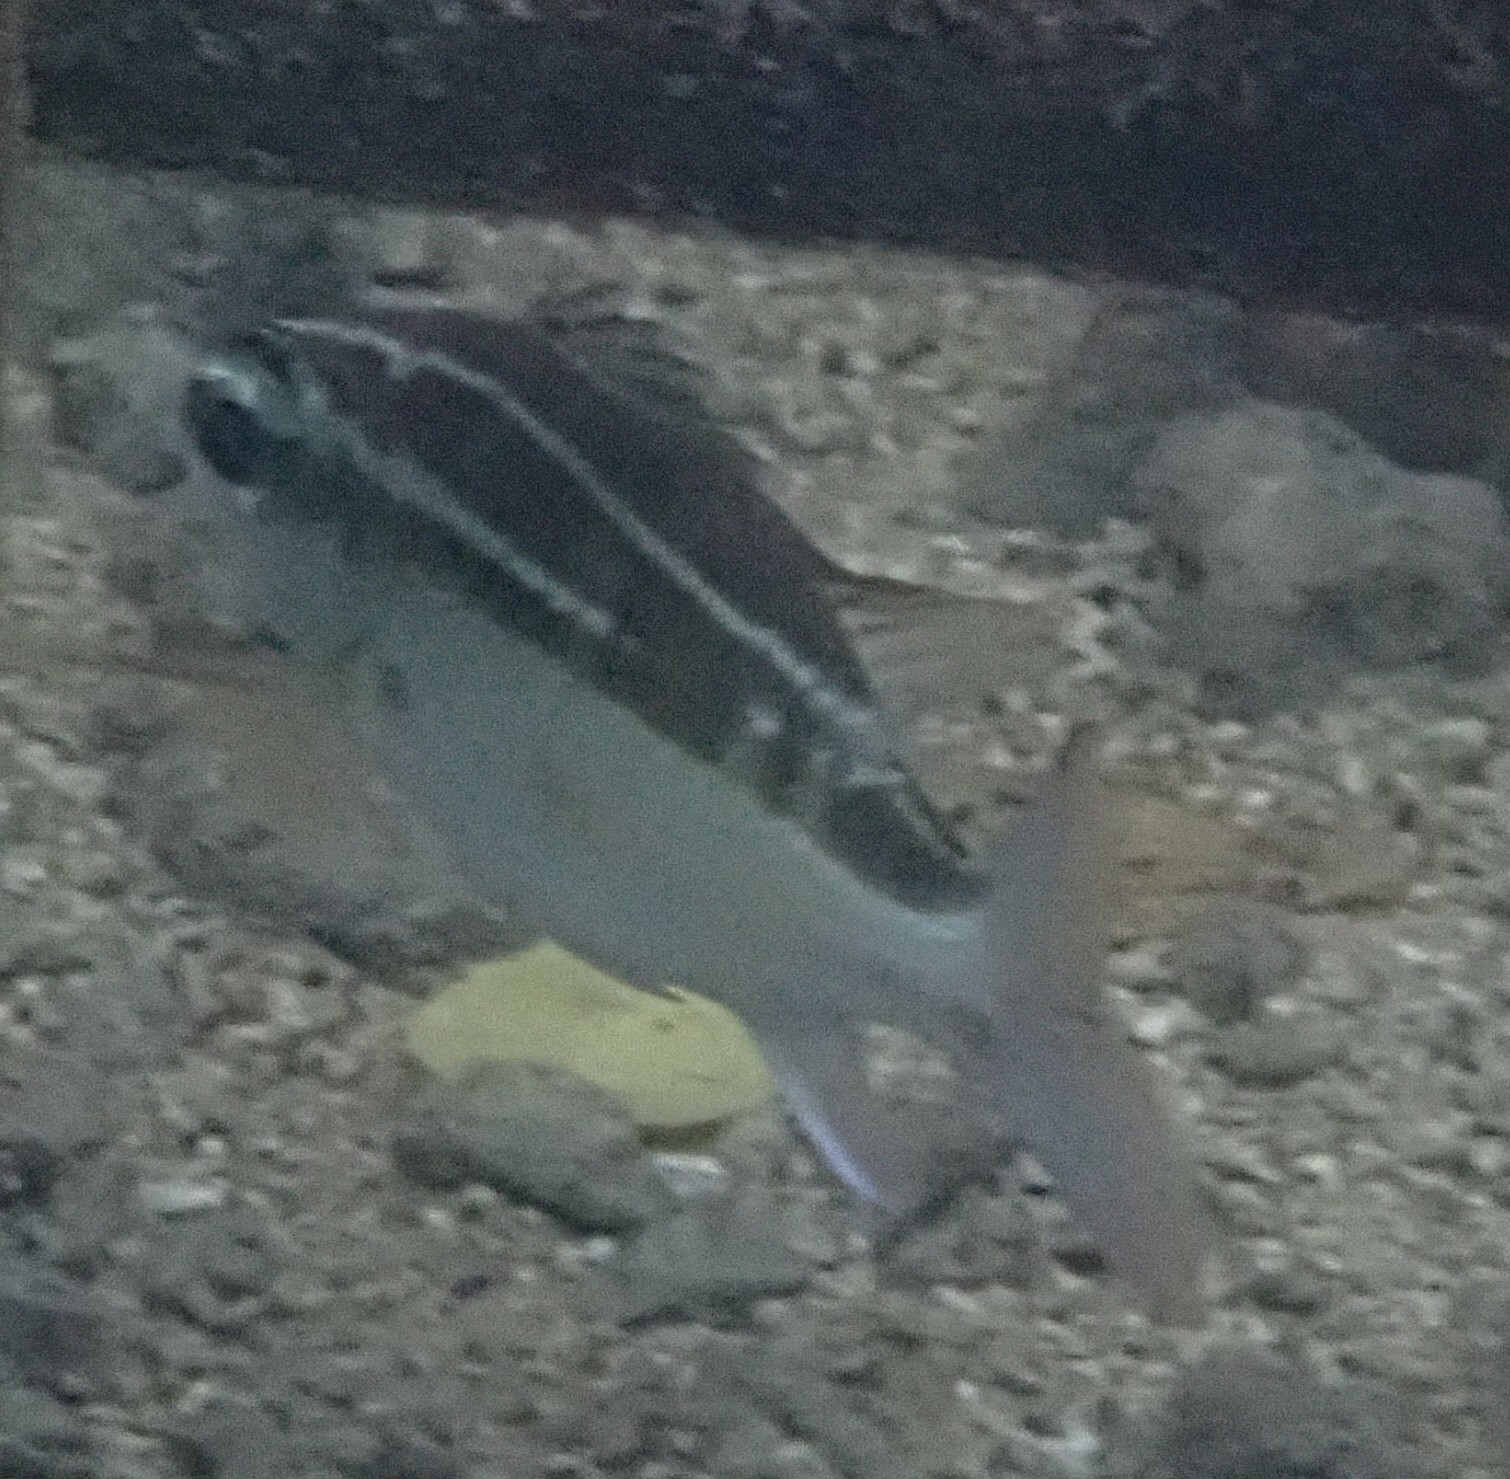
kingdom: Animalia
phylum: Chordata
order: Perciformes
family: Nemipteridae
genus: Scolopsis
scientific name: Scolopsis lineata
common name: Striped monocle bream
